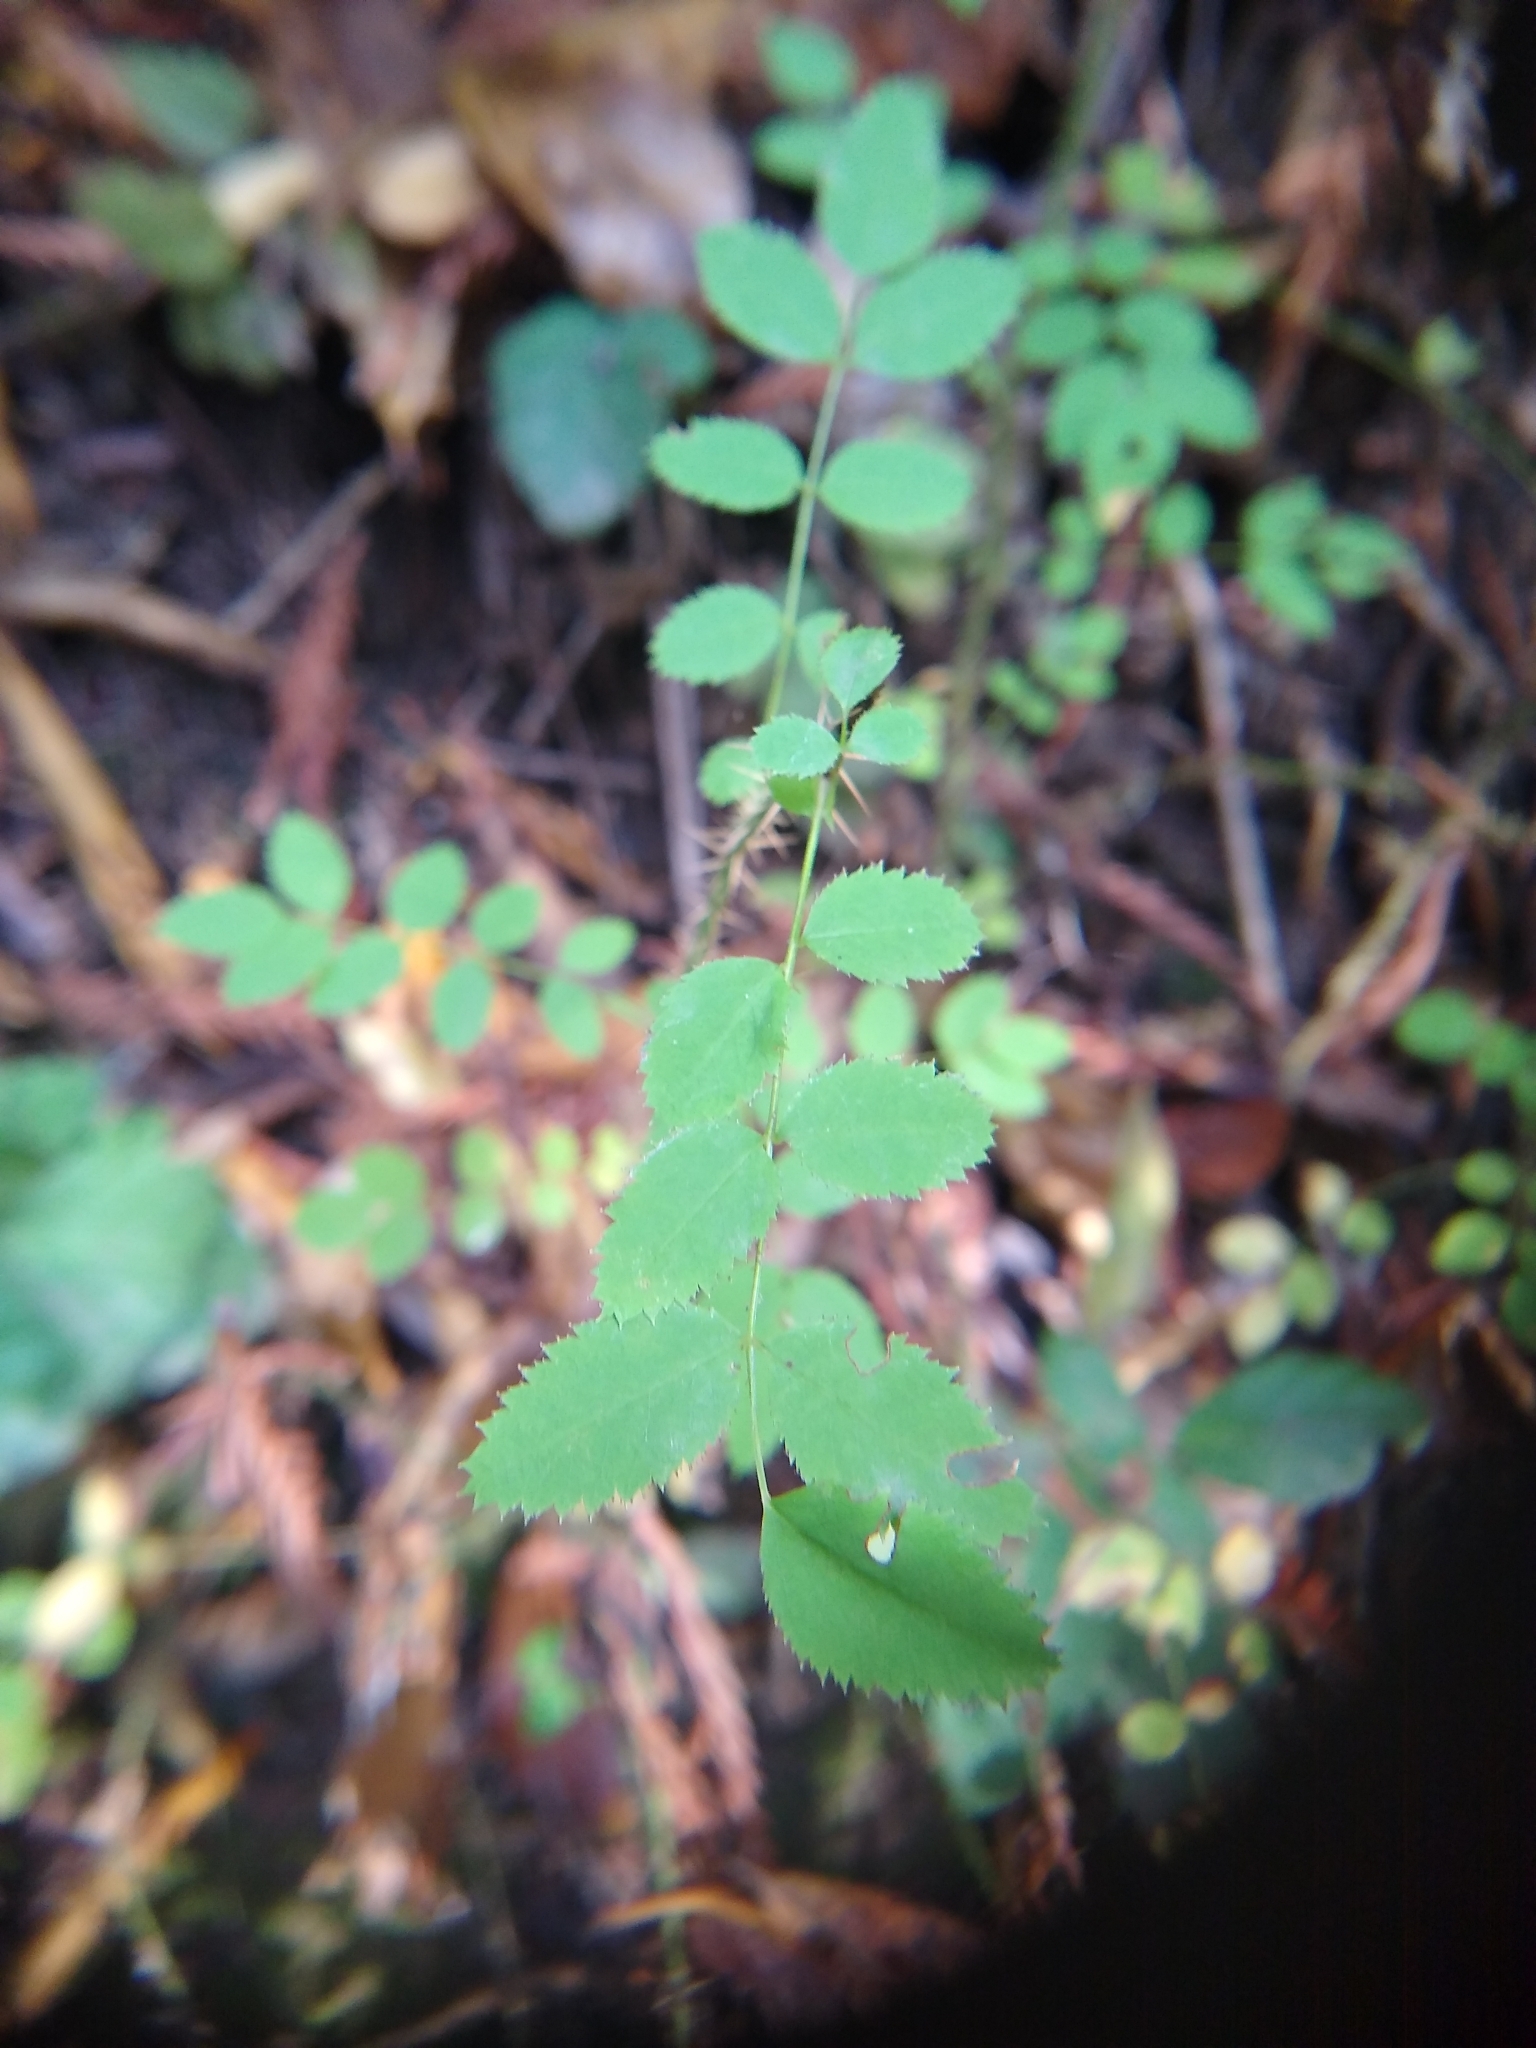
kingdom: Plantae
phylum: Tracheophyta
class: Magnoliopsida
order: Rosales
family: Rosaceae
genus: Rosa
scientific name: Rosa gymnocarpa
